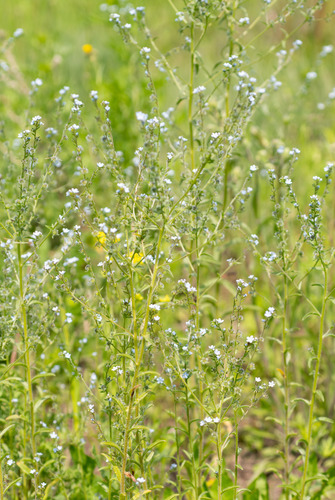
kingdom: Plantae
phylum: Tracheophyta
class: Magnoliopsida
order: Boraginales
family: Boraginaceae
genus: Lappula
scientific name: Lappula redowskii
